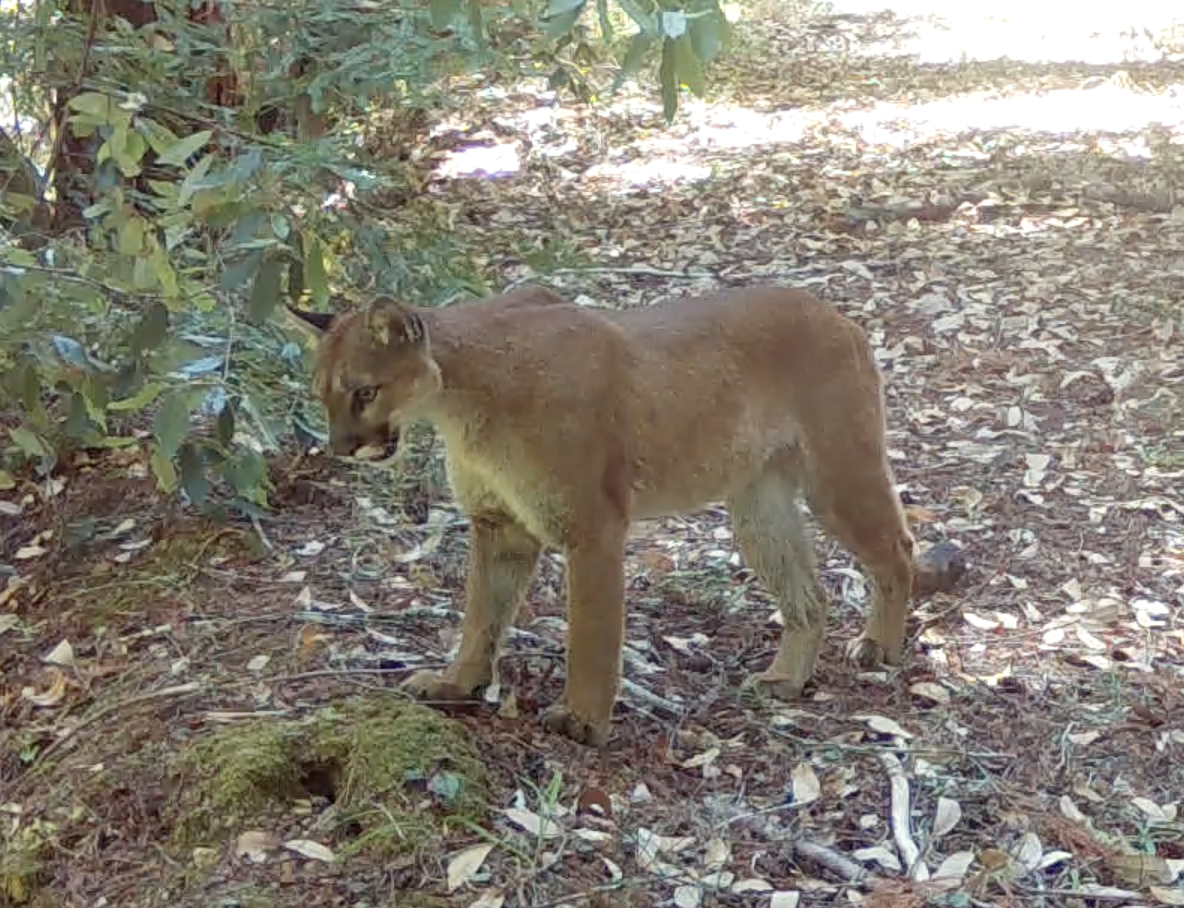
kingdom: Animalia
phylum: Chordata
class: Mammalia
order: Carnivora
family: Felidae
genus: Puma
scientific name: Puma concolor
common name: Puma
